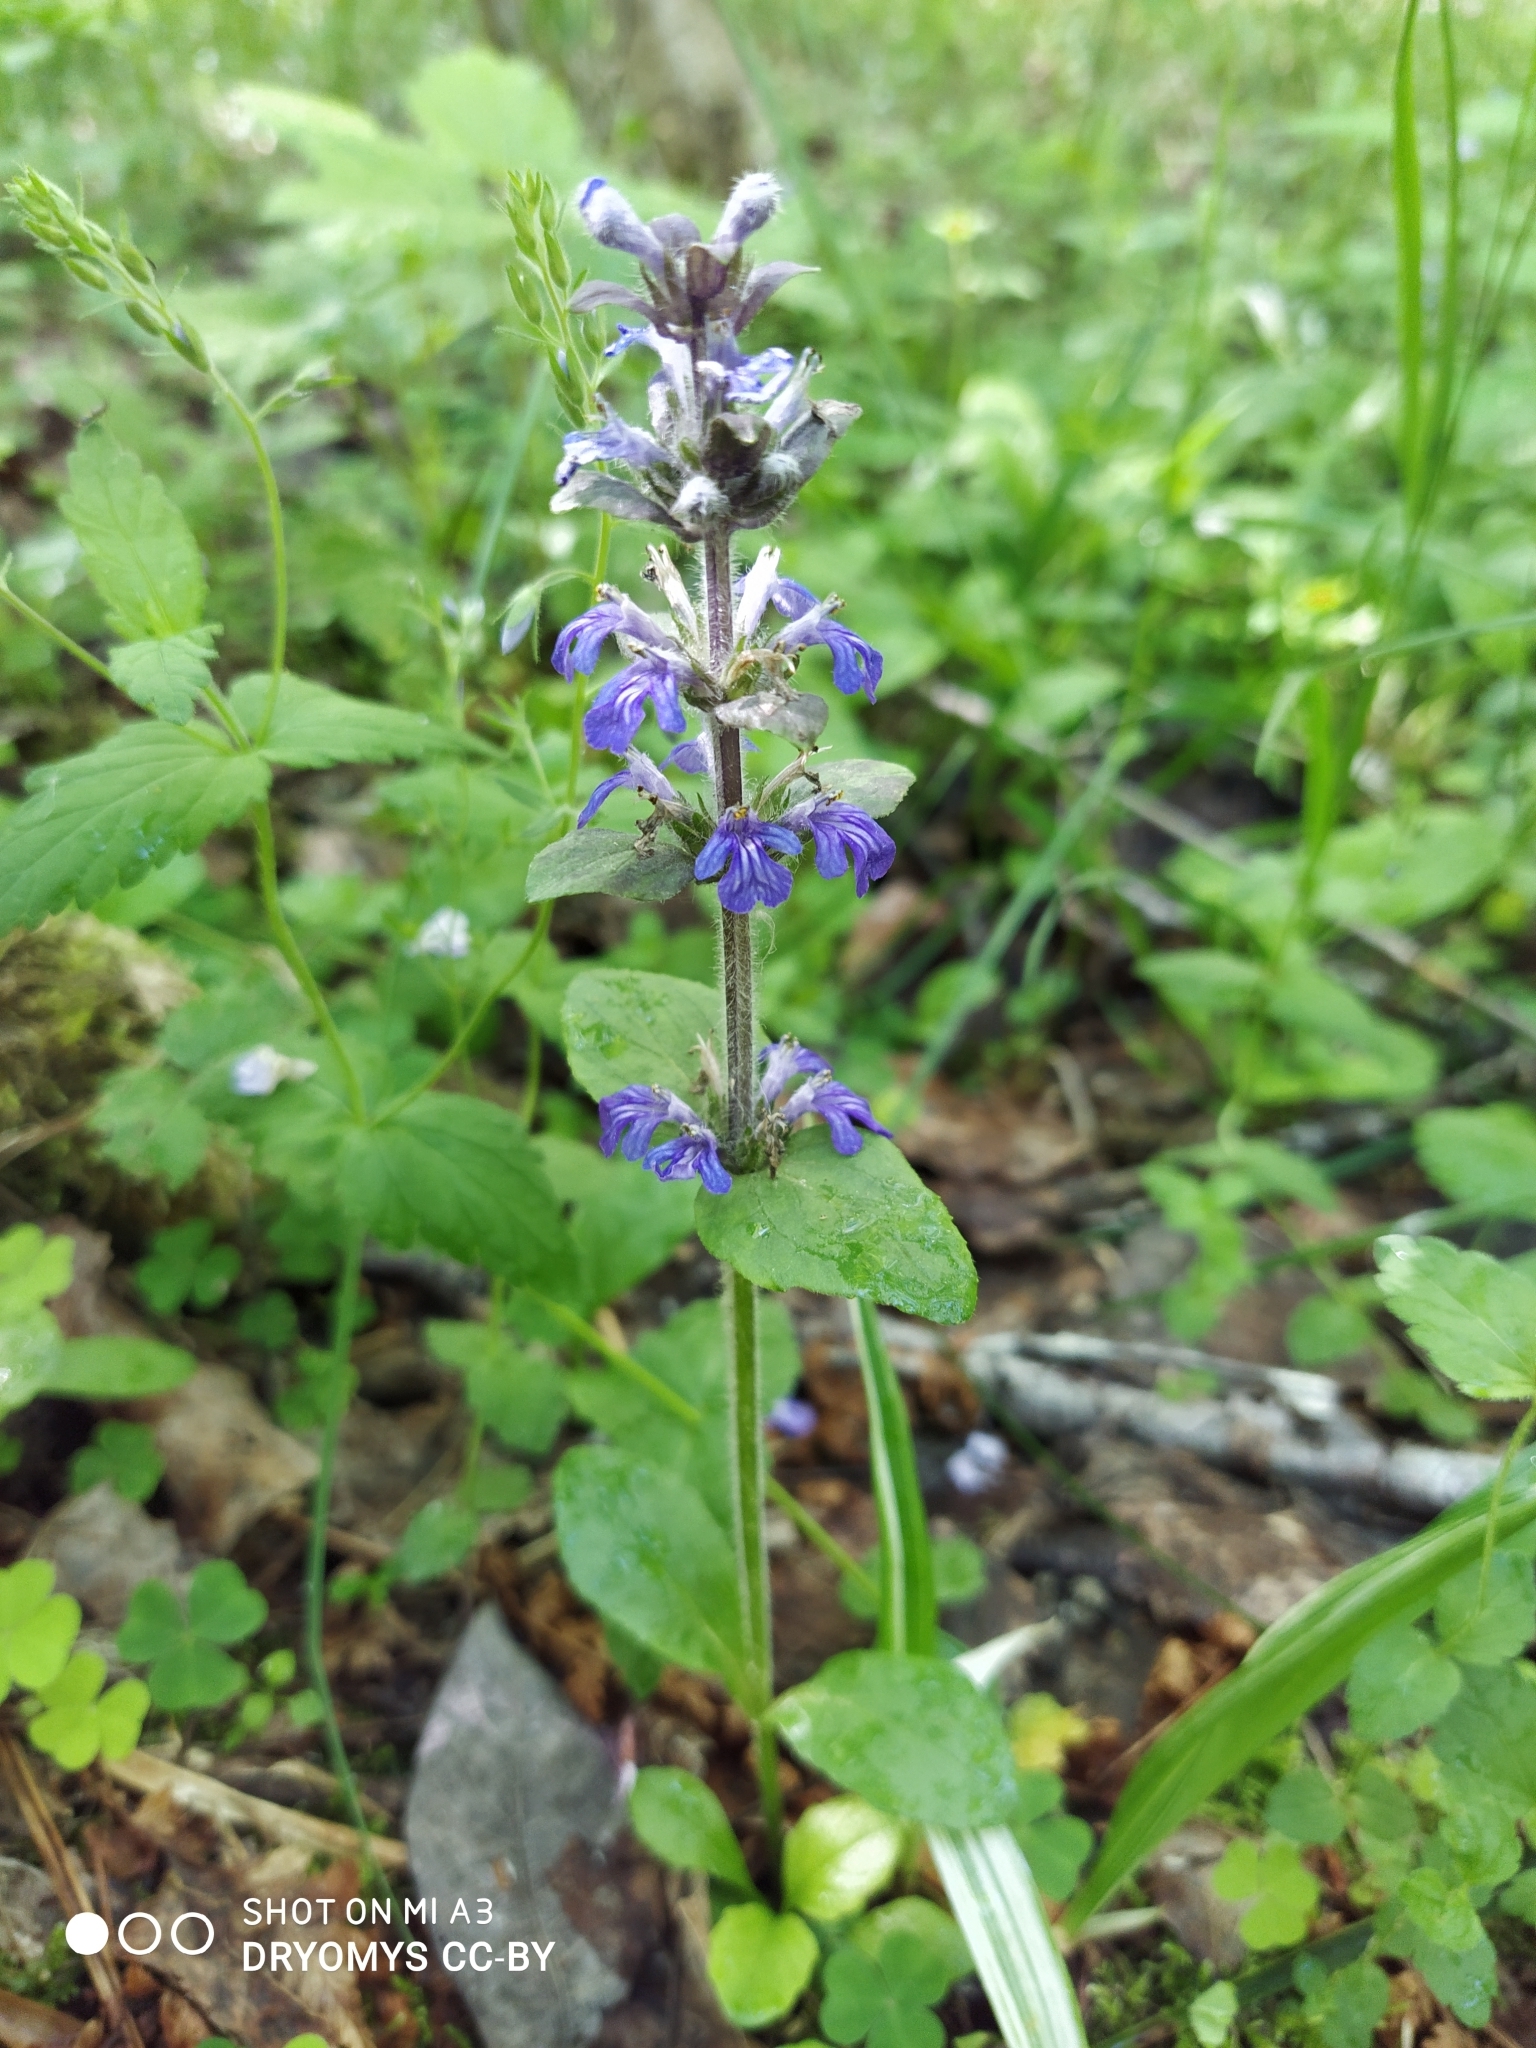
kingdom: Plantae
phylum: Tracheophyta
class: Magnoliopsida
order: Lamiales
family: Lamiaceae
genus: Ajuga
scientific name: Ajuga reptans
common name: Bugle
